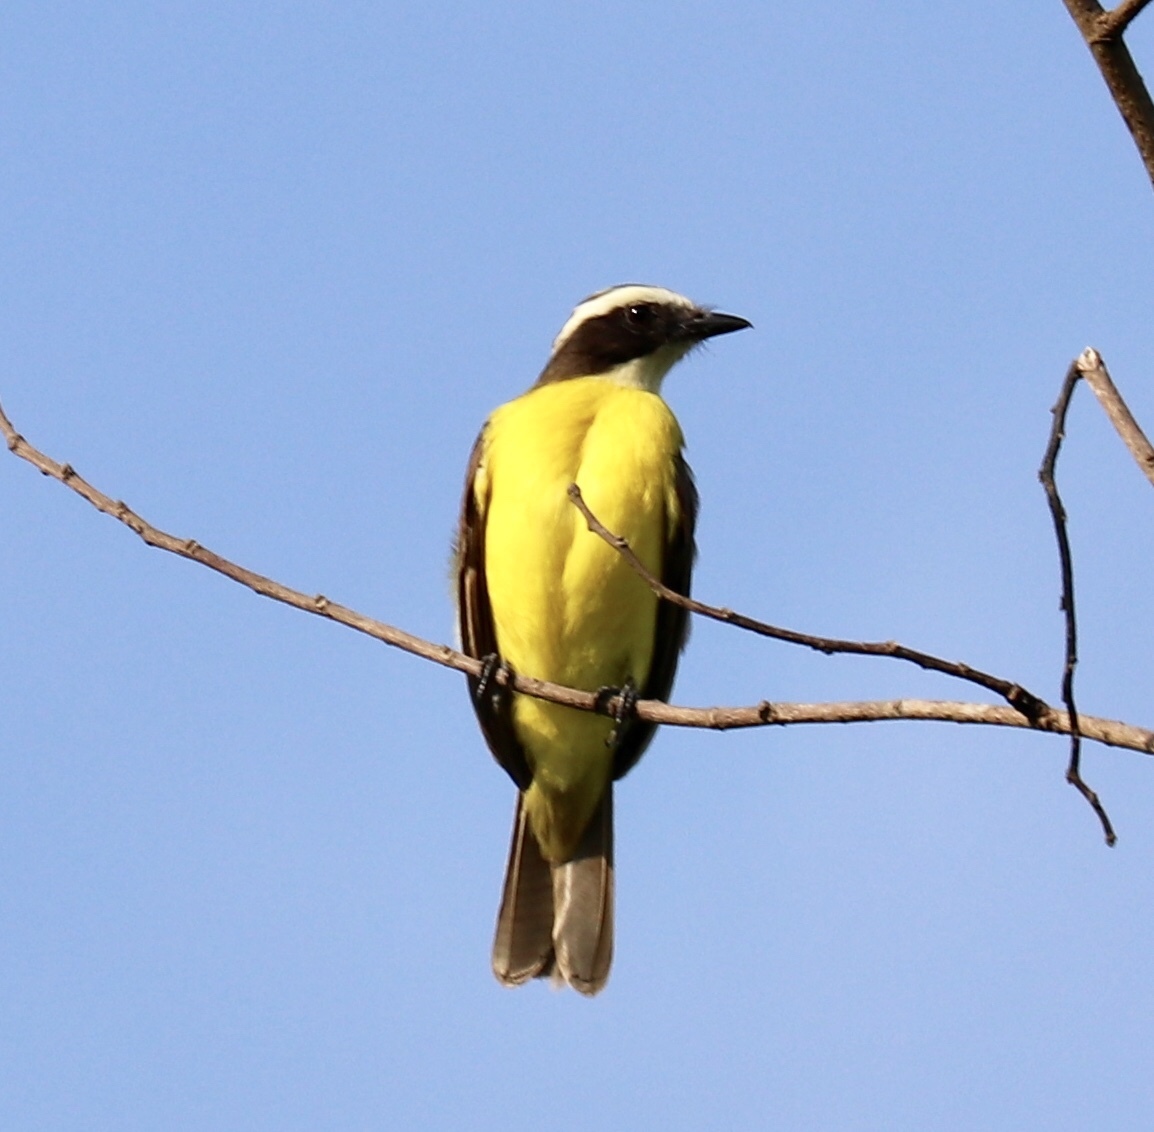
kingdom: Animalia
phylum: Chordata
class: Aves
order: Passeriformes
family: Tyrannidae
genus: Myiozetetes
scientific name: Myiozetetes cayanensis
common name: Rusty-margined flycatcher
